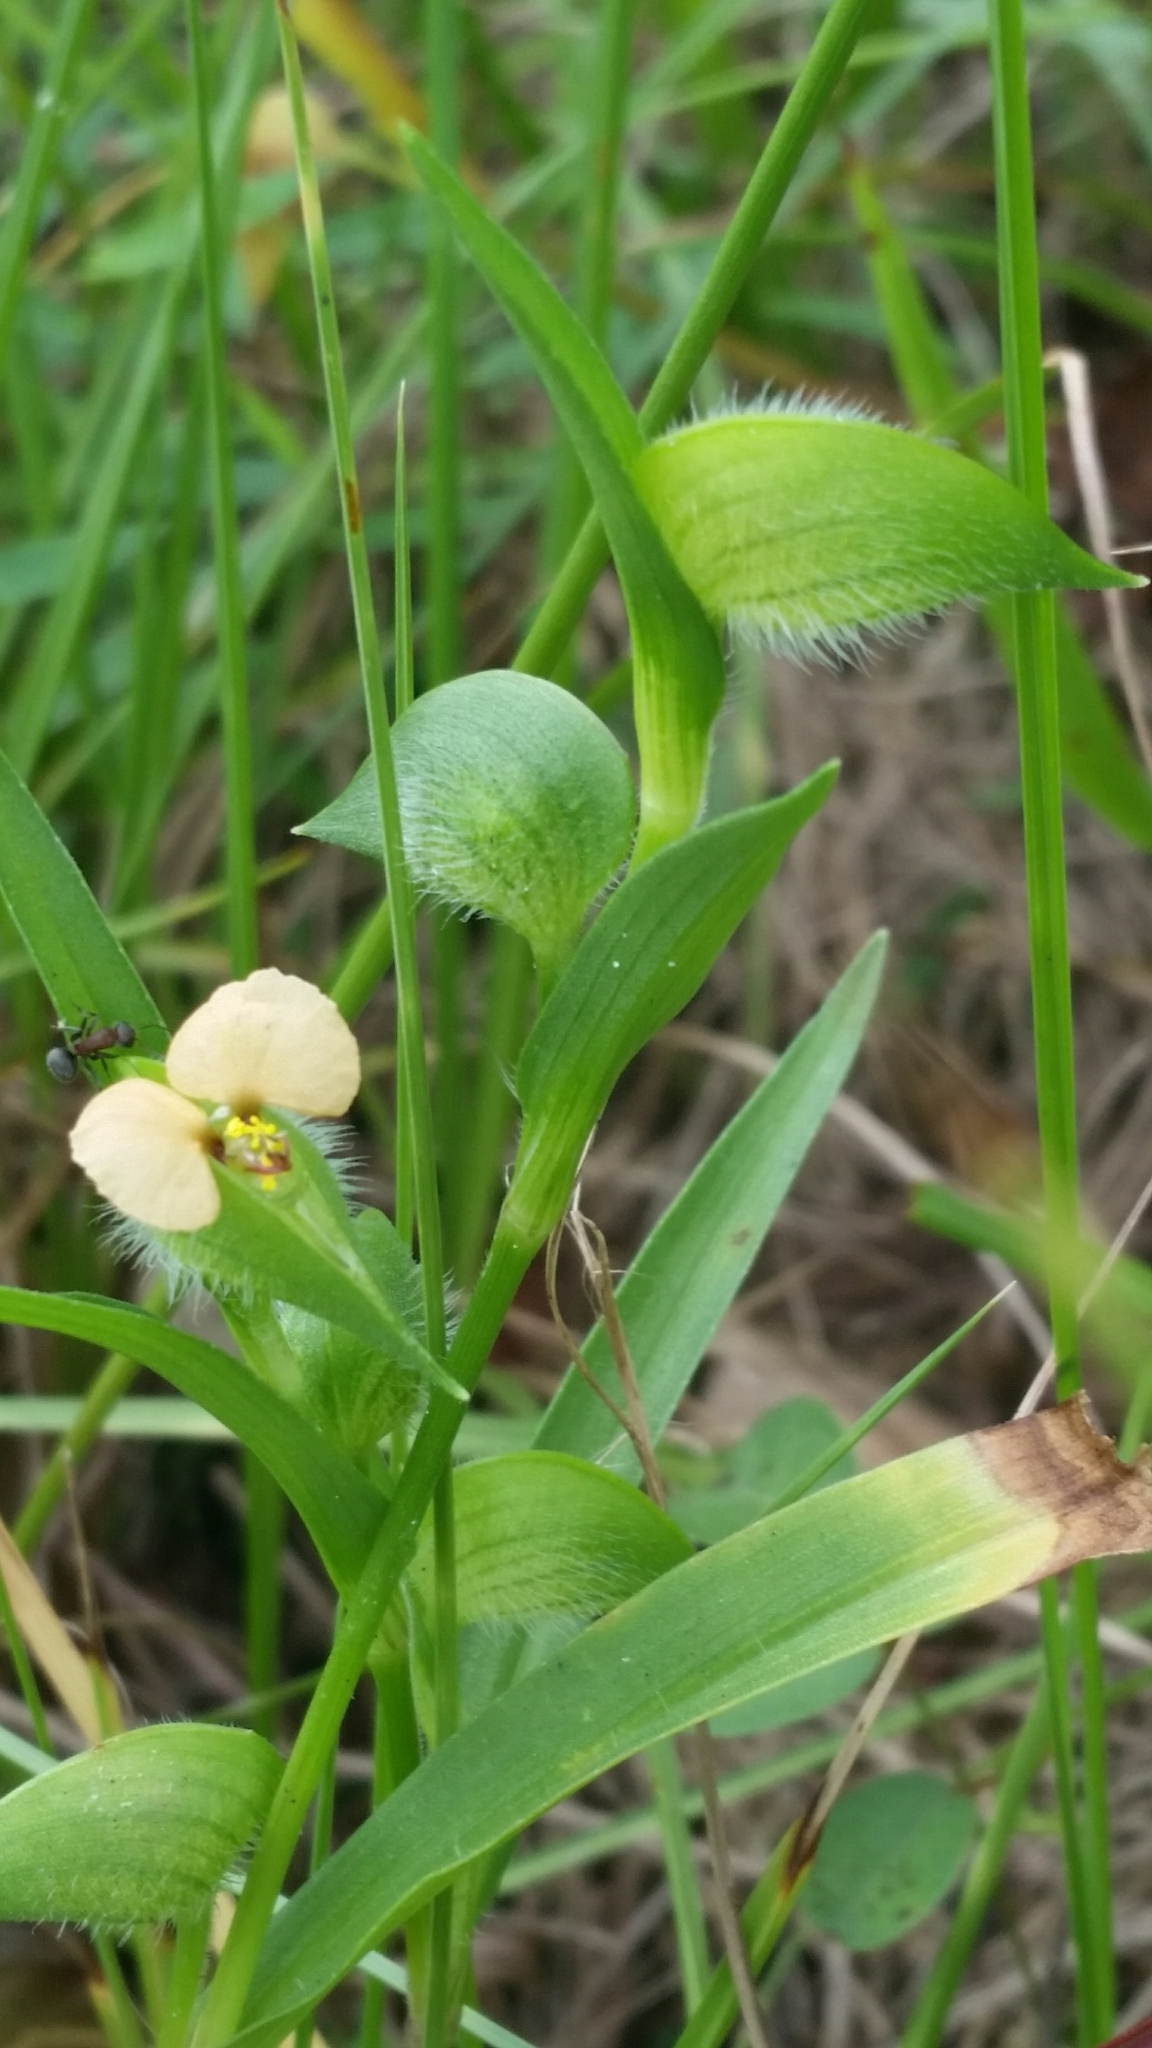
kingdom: Plantae
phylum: Tracheophyta
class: Liliopsida
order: Commelinales
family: Commelinaceae
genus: Commelina
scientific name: Commelina gambiae
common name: Gambian dayflower
